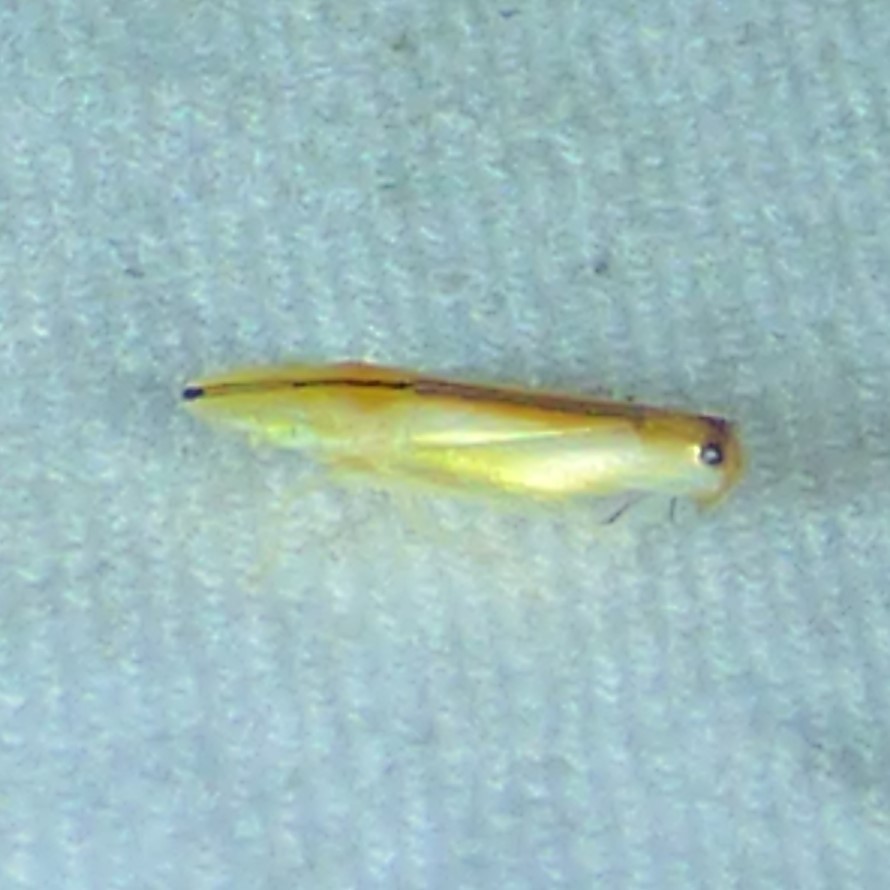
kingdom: Animalia
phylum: Arthropoda
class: Insecta
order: Hemiptera
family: Cicadellidae
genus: Sophonia
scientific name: Sophonia orientalis
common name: Two-spotted leafhopper
